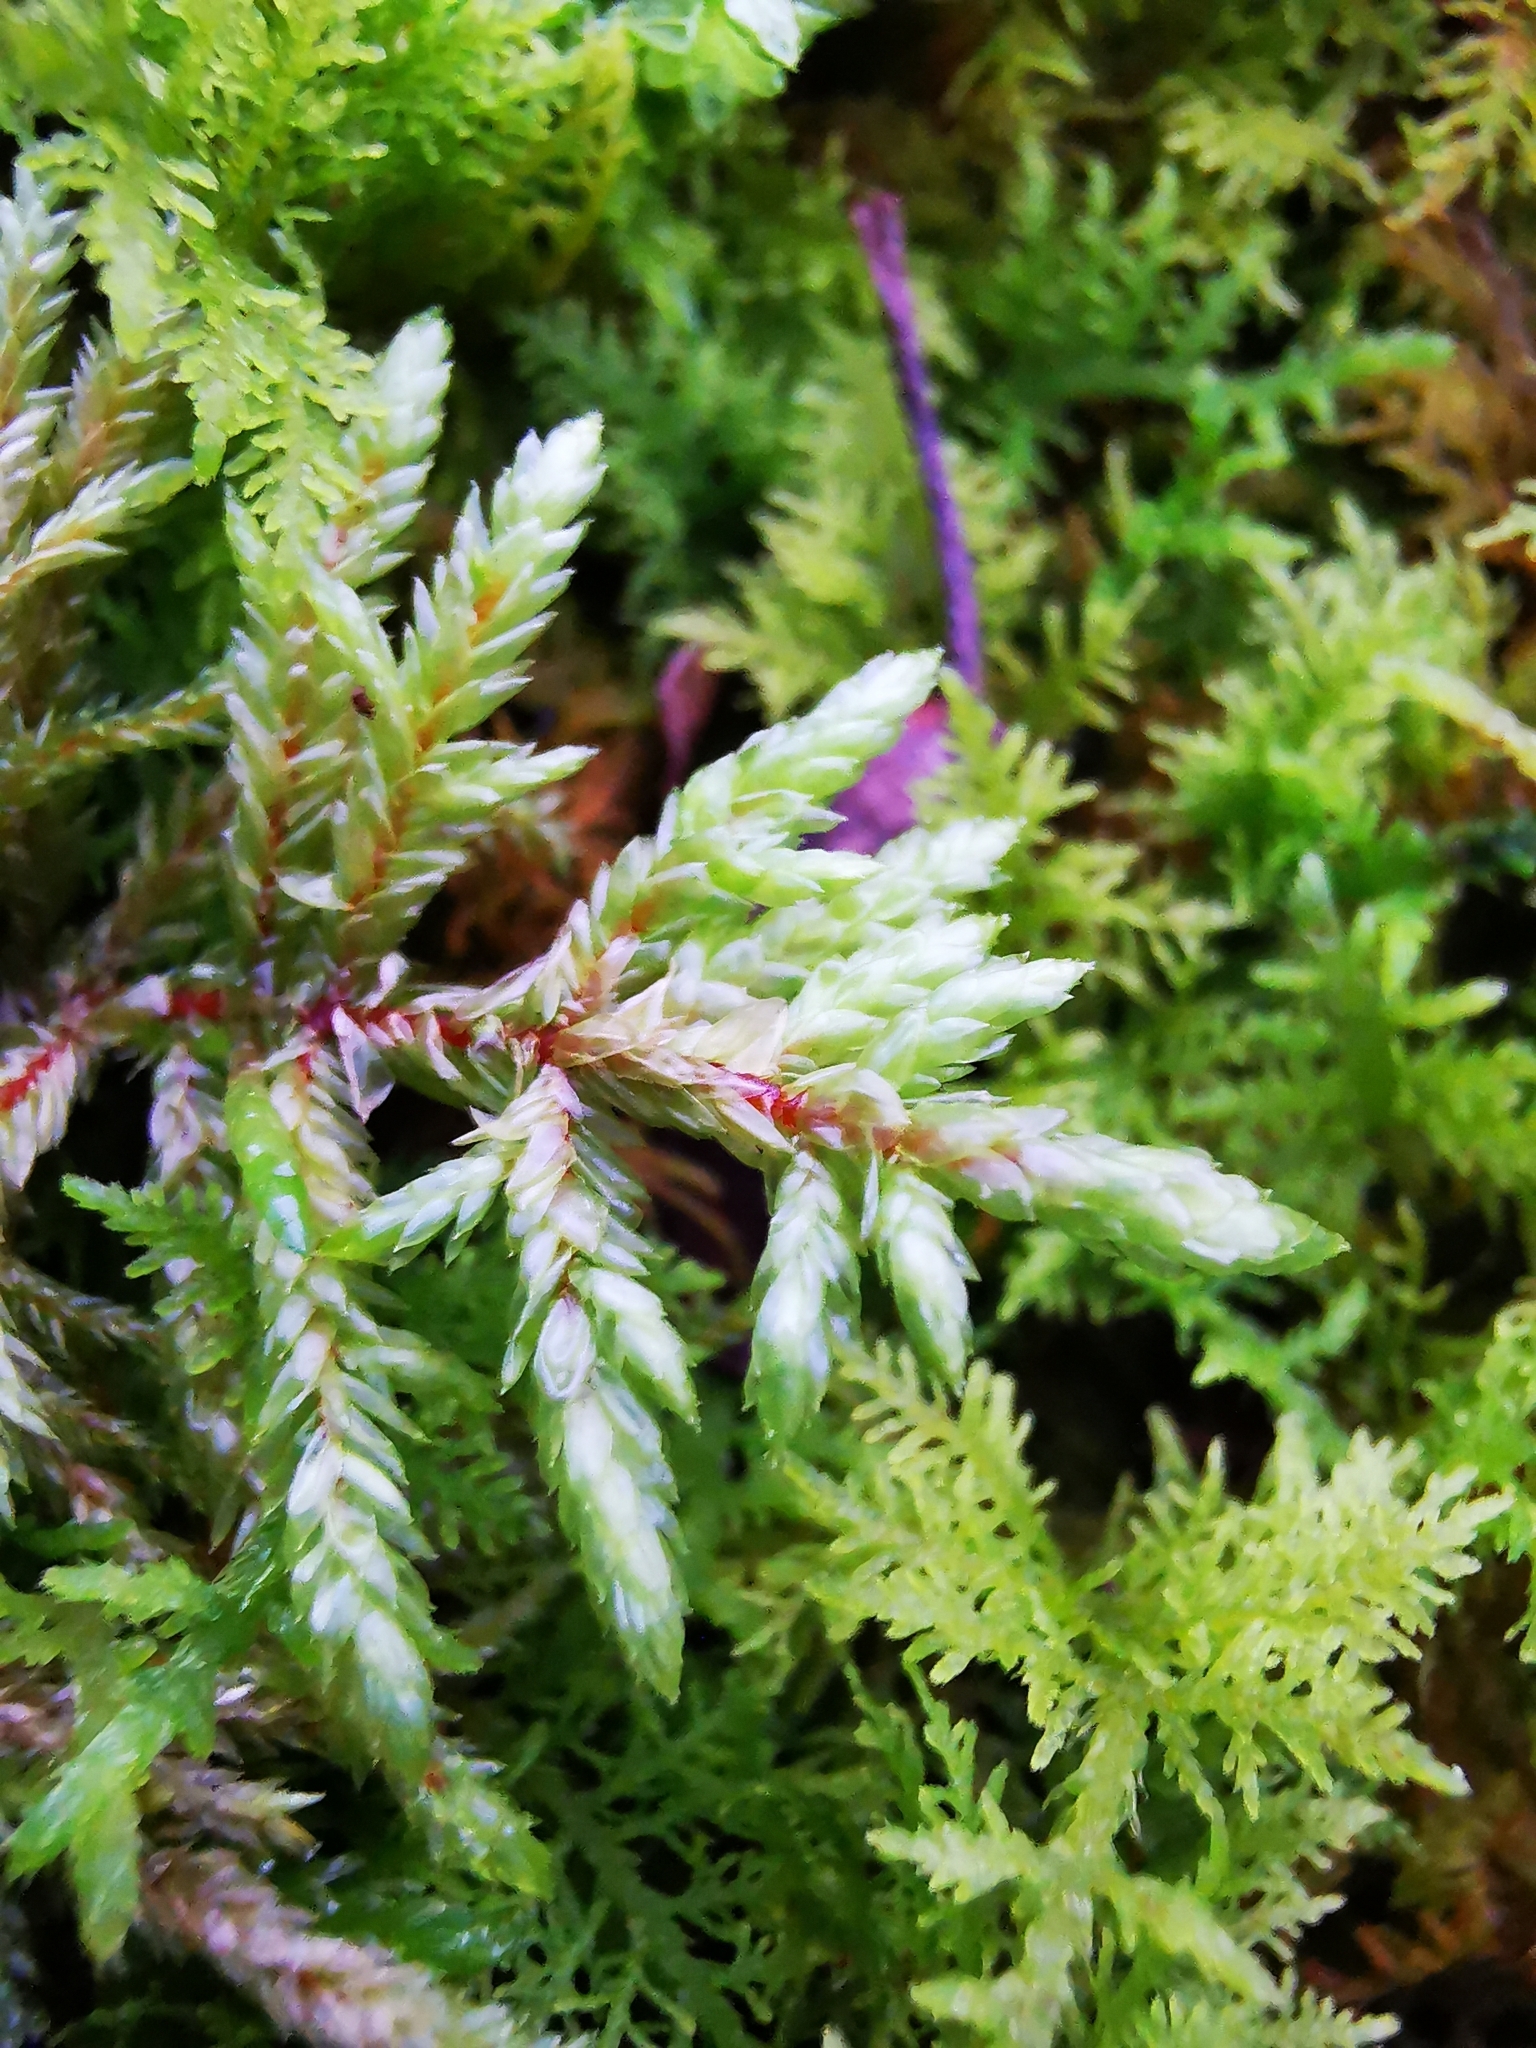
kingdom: Plantae
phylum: Bryophyta
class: Bryopsida
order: Hypnales
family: Hylocomiaceae
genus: Pleurozium
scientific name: Pleurozium schreberi
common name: Red-stemmed feather moss
